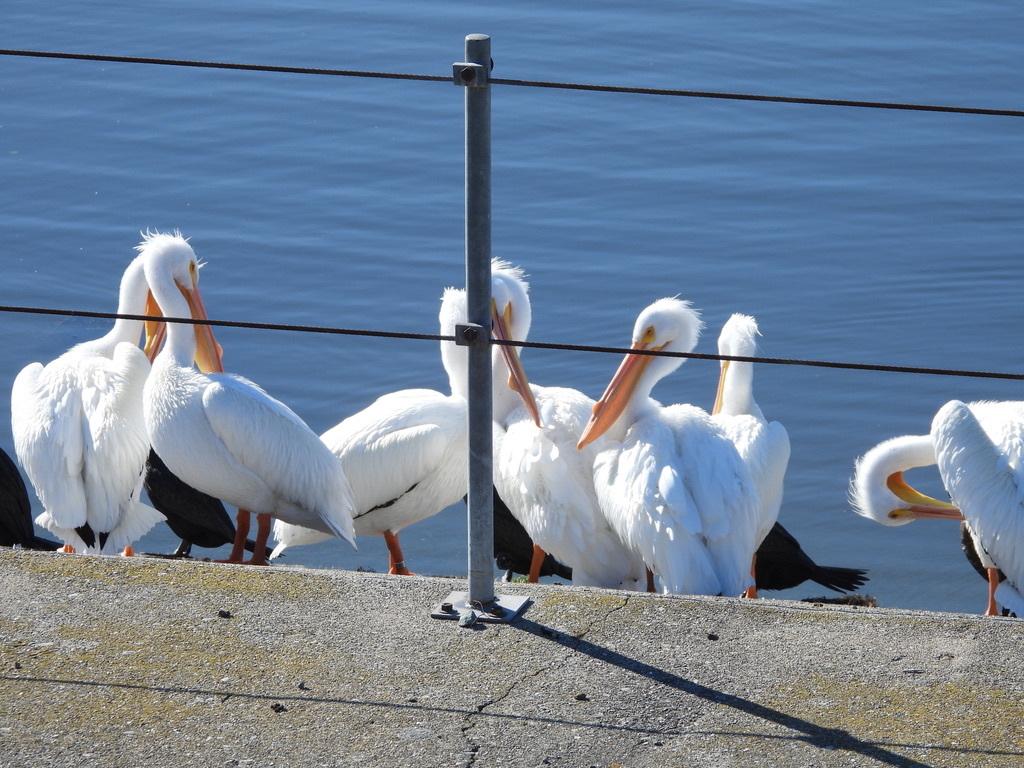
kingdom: Animalia
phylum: Chordata
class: Aves
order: Pelecaniformes
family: Pelecanidae
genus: Pelecanus
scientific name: Pelecanus erythrorhynchos
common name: American white pelican
